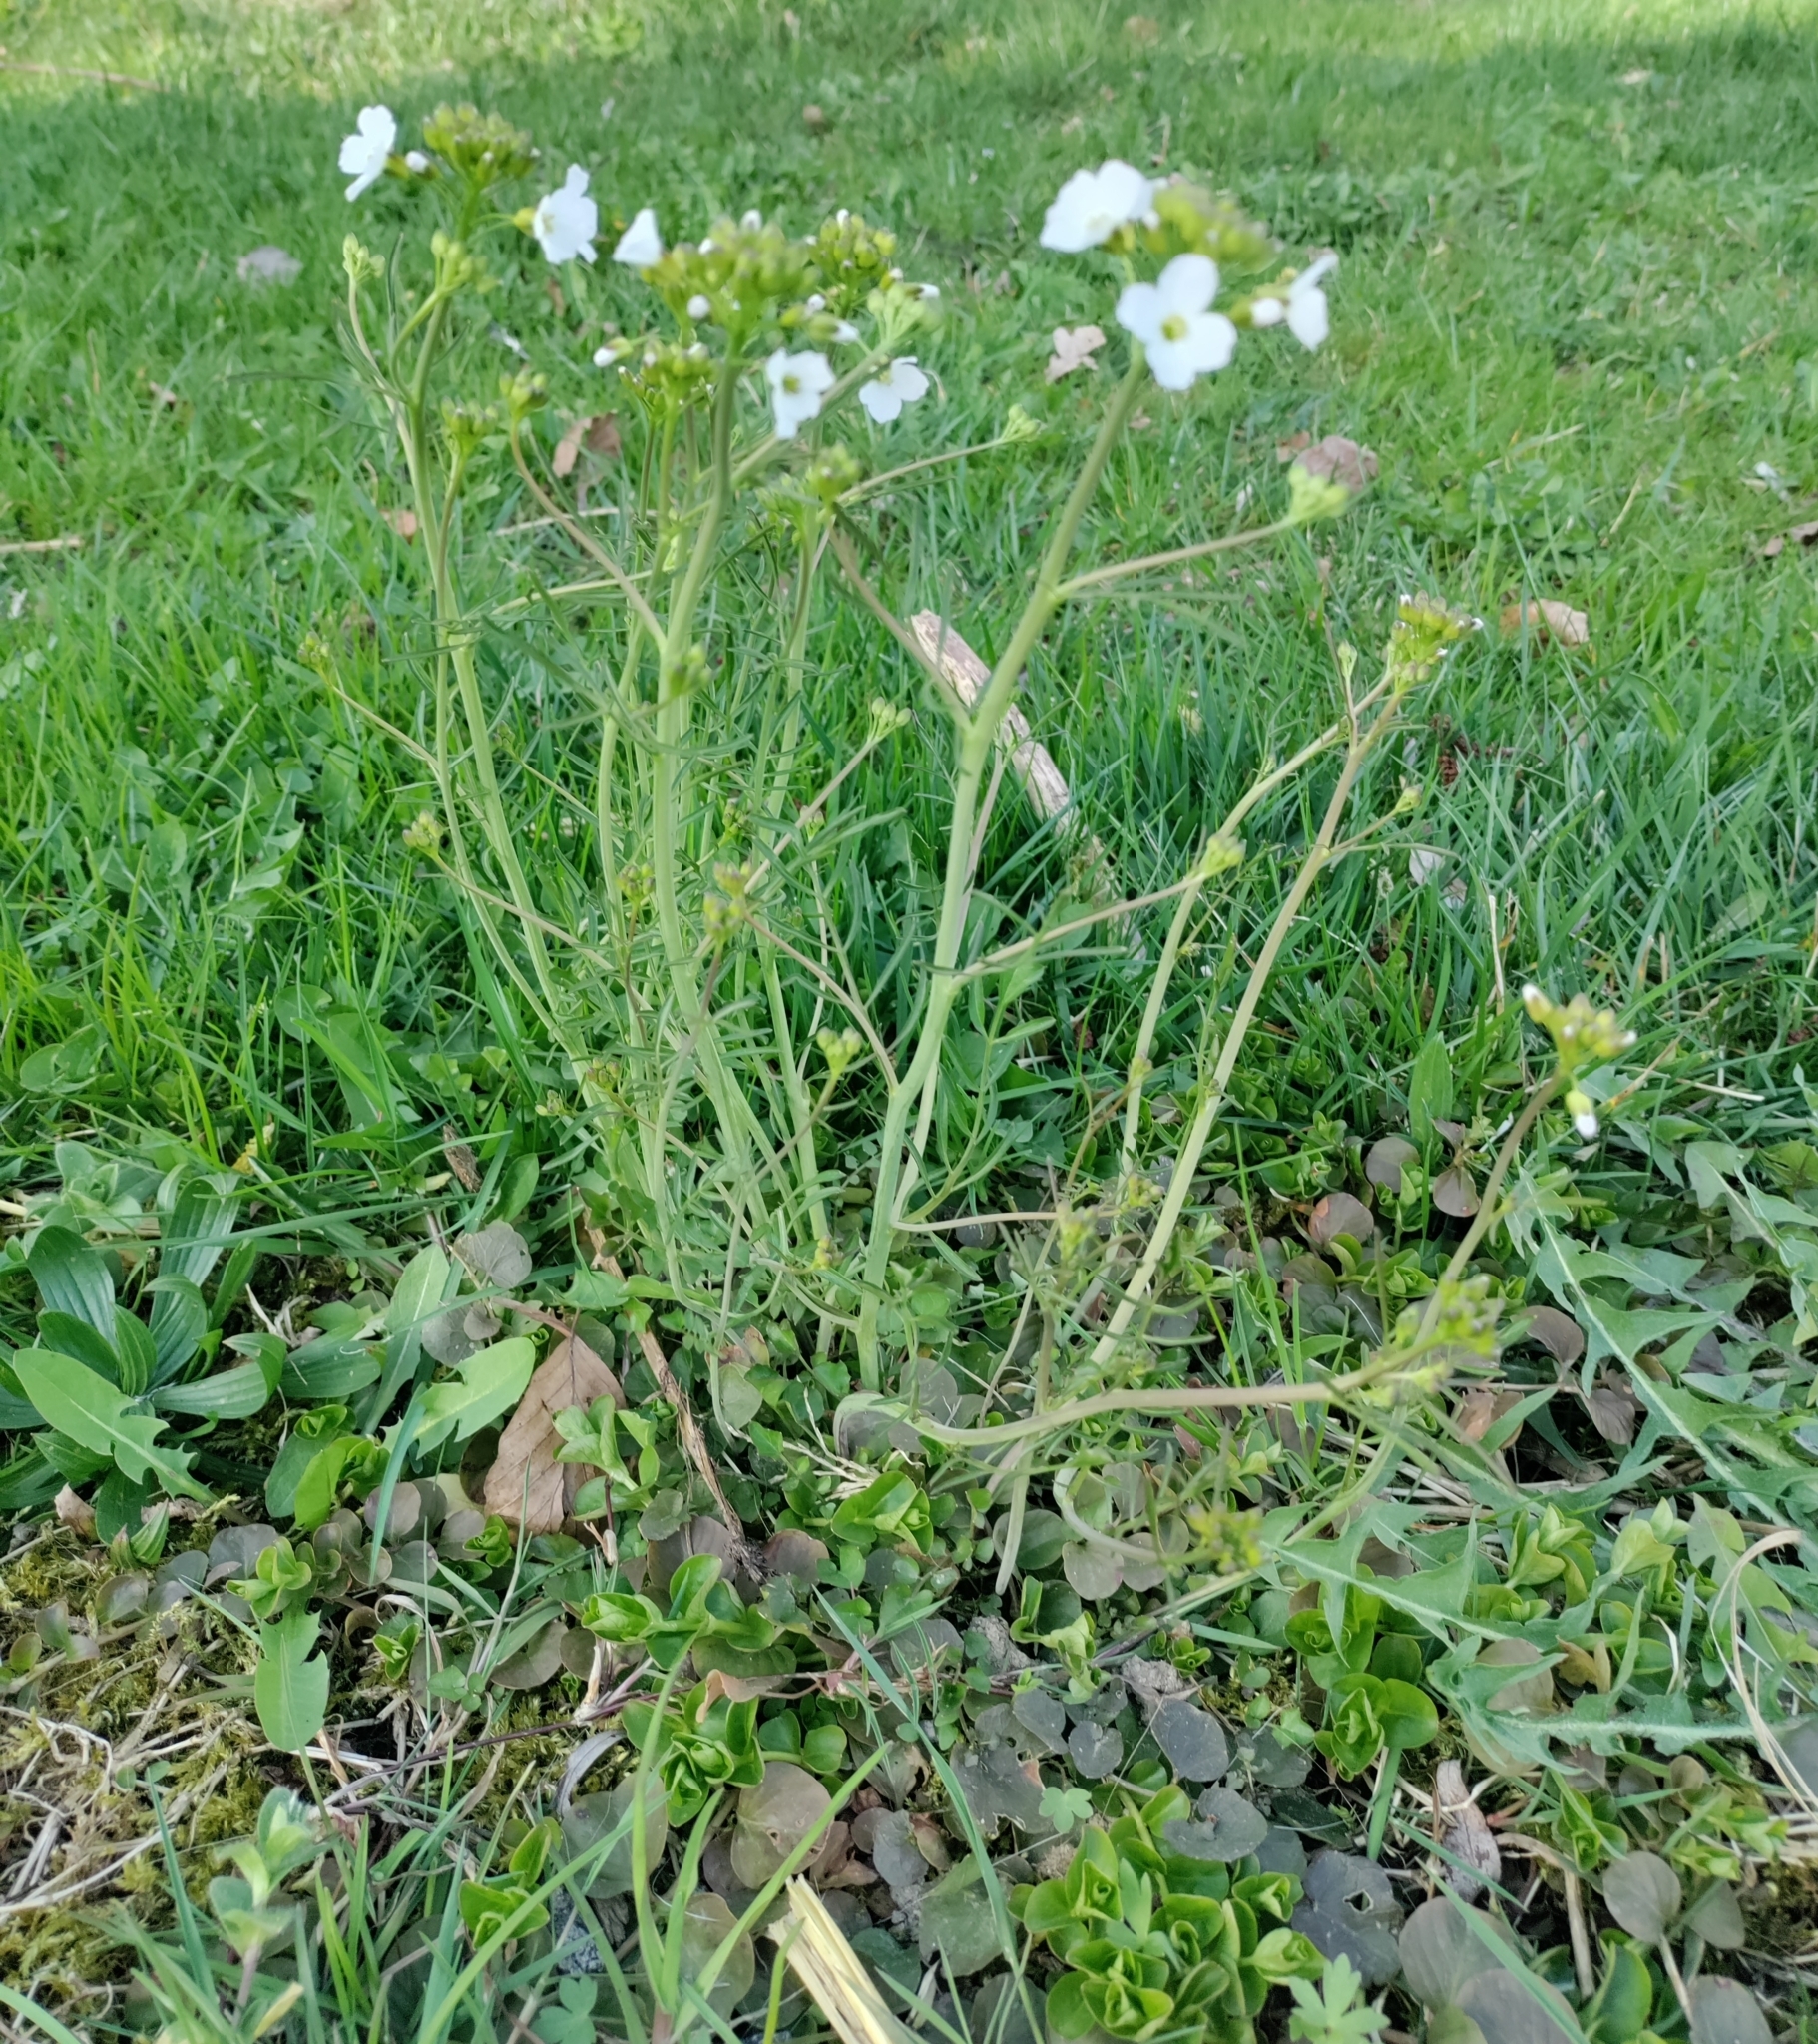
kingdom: Plantae
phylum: Tracheophyta
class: Magnoliopsida
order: Brassicales
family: Brassicaceae
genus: Cardamine
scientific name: Cardamine pratensis
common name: Cuckoo flower
